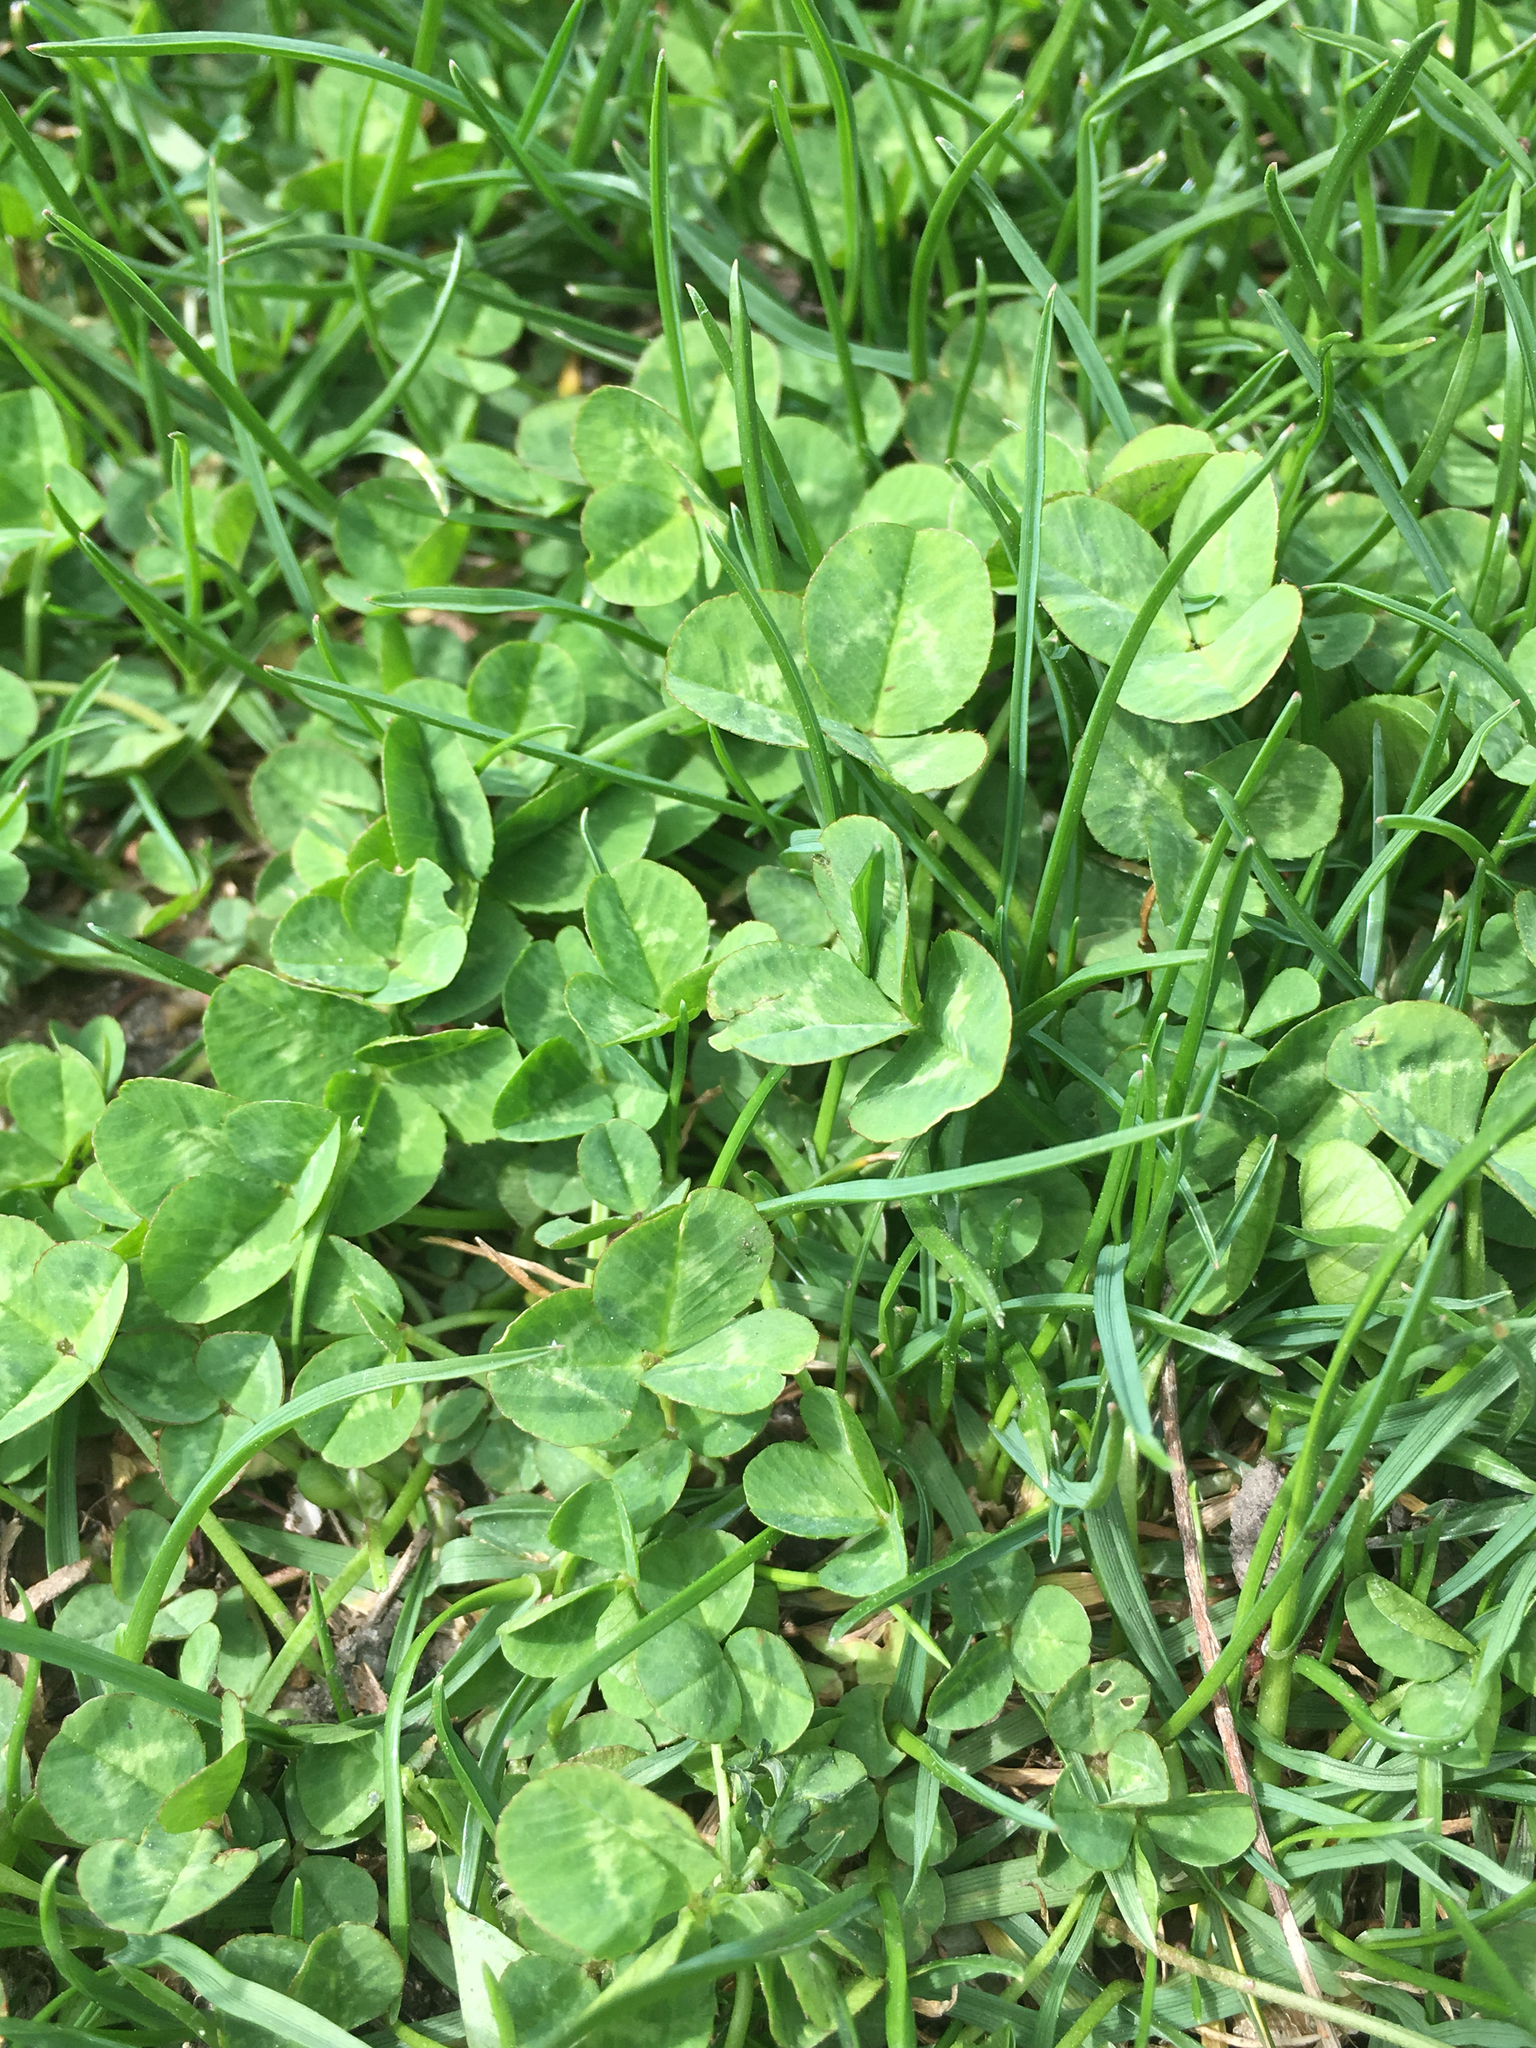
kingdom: Plantae
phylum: Tracheophyta
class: Magnoliopsida
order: Fabales
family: Fabaceae
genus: Trifolium
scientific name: Trifolium repens
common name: White clover
